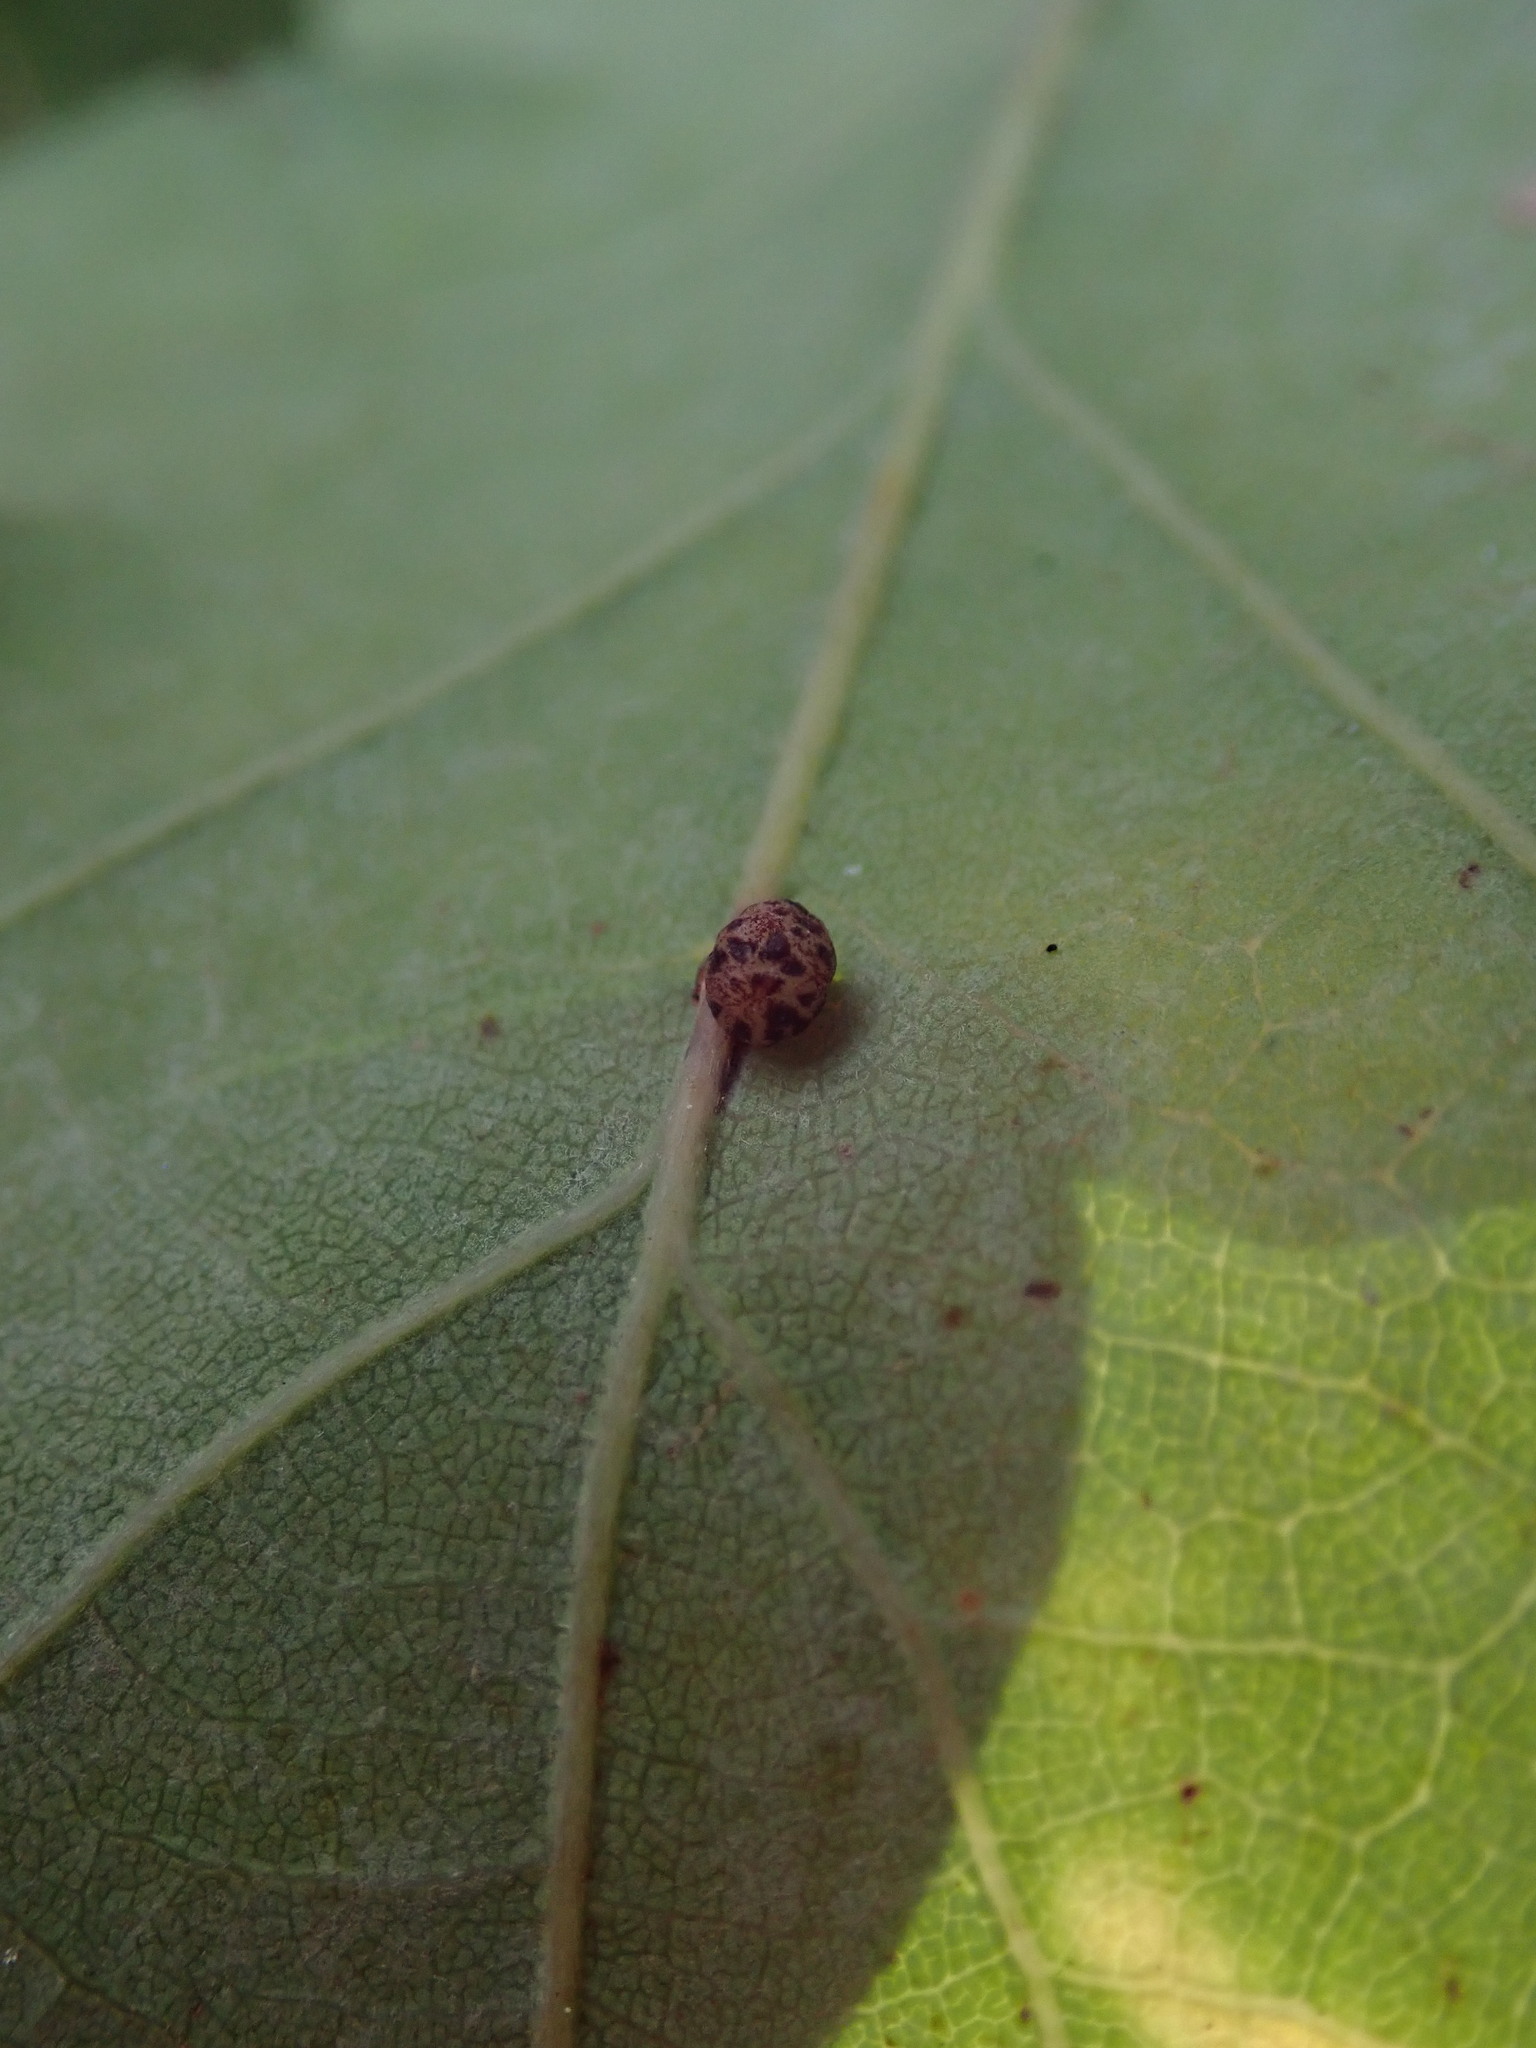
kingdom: Animalia
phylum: Arthropoda
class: Insecta
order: Hymenoptera
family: Cynipidae
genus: Neuroterus
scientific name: Neuroterus anthracinus
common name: Oyster gall
